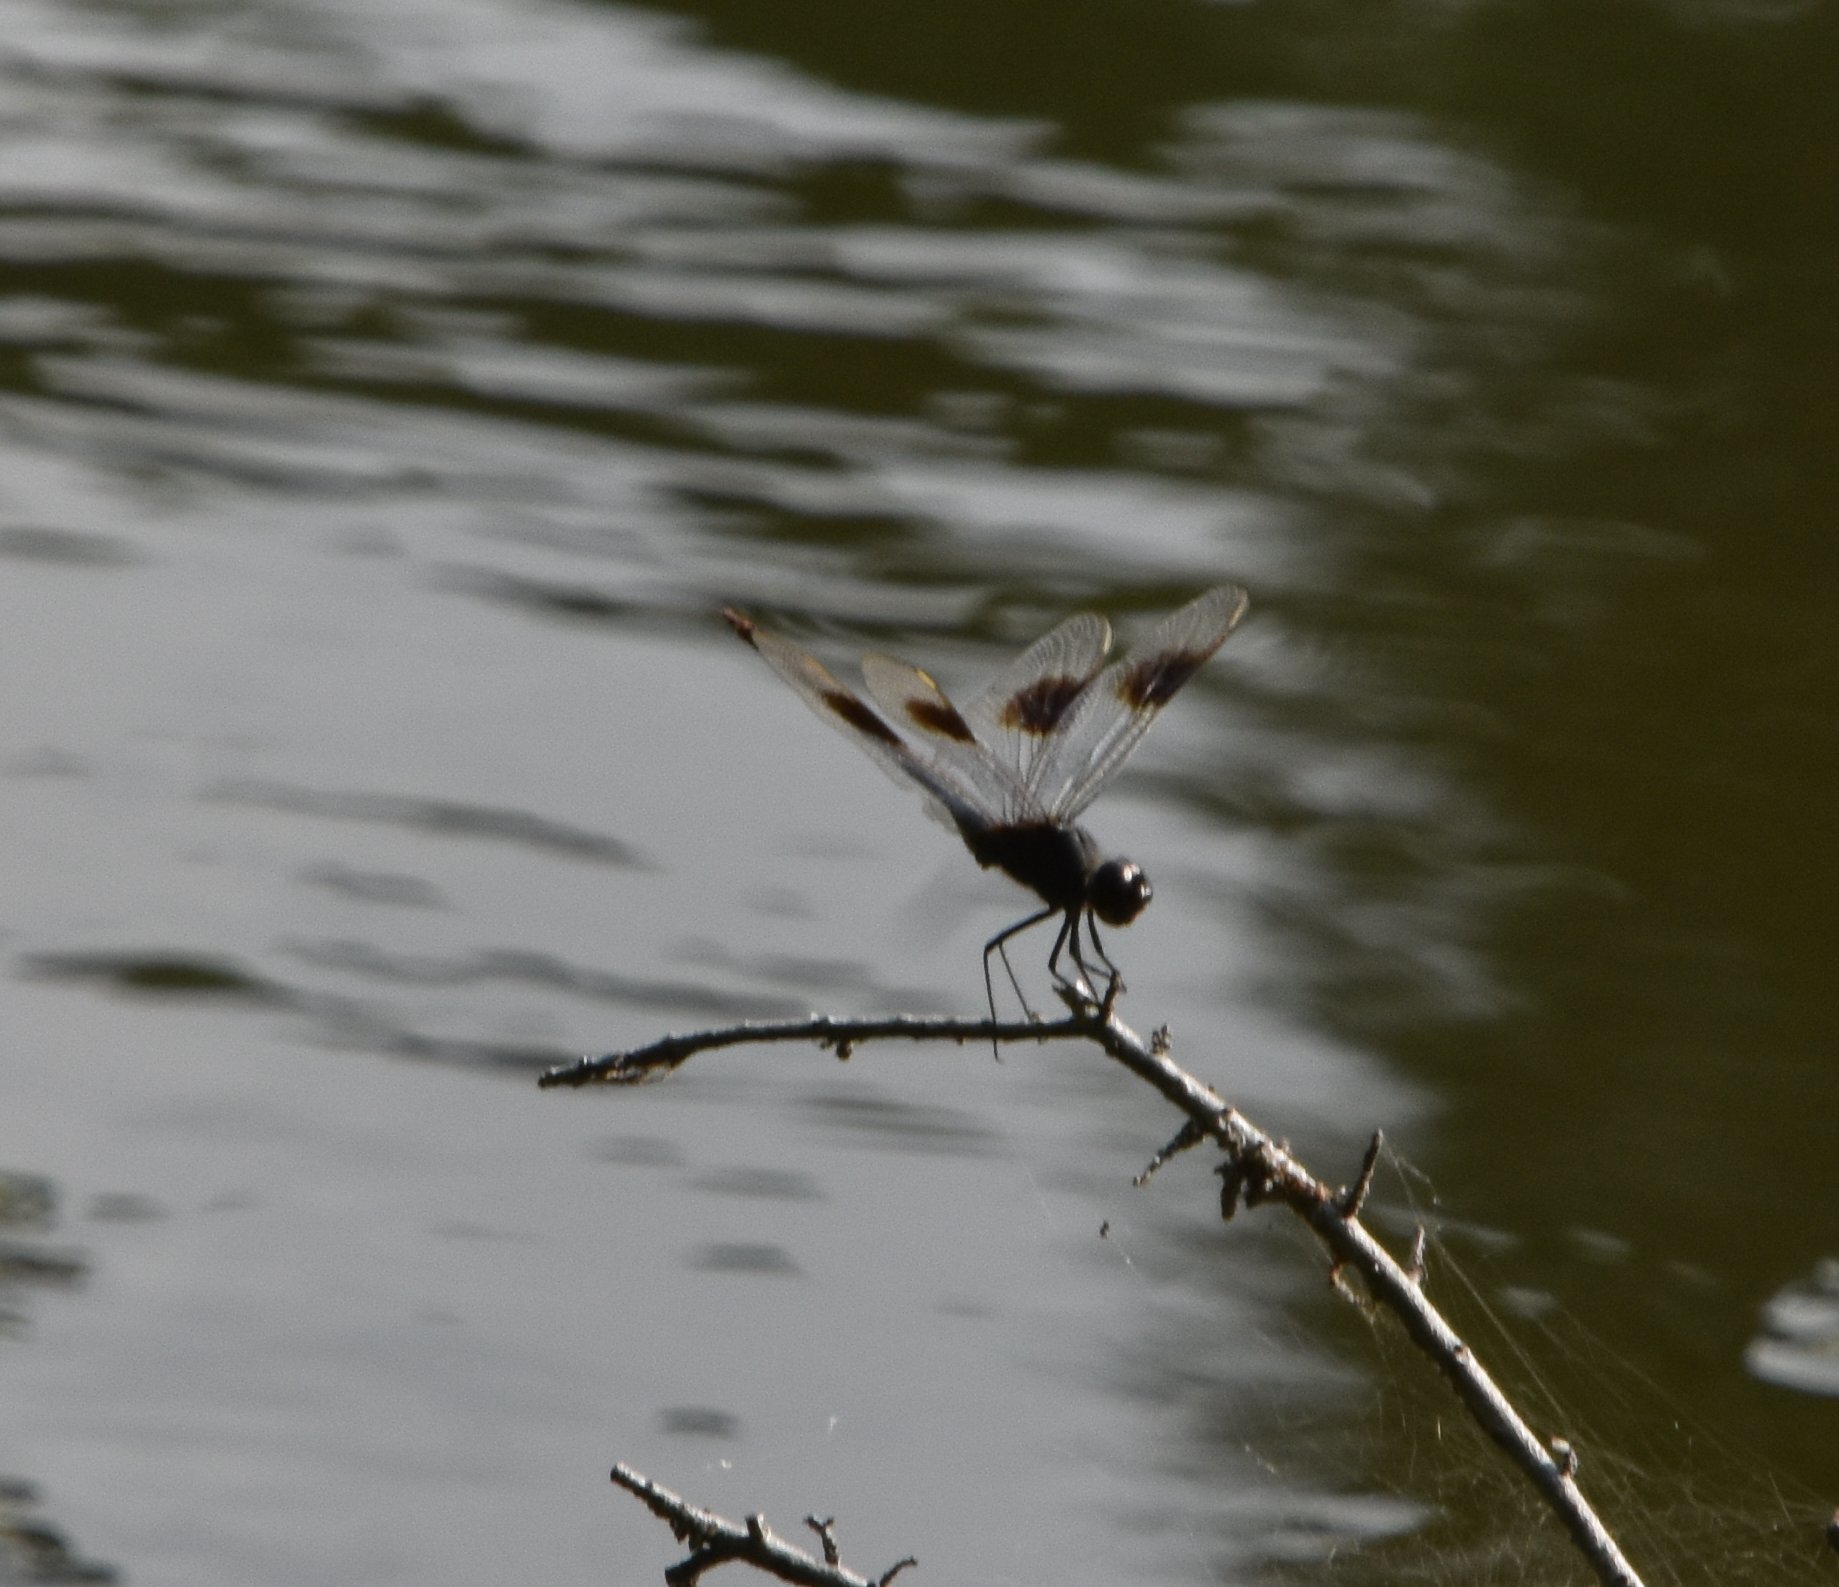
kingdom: Animalia
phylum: Arthropoda
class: Insecta
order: Odonata
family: Libellulidae
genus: Brachymesia
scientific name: Brachymesia gravida
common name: Four-spotted pennant
